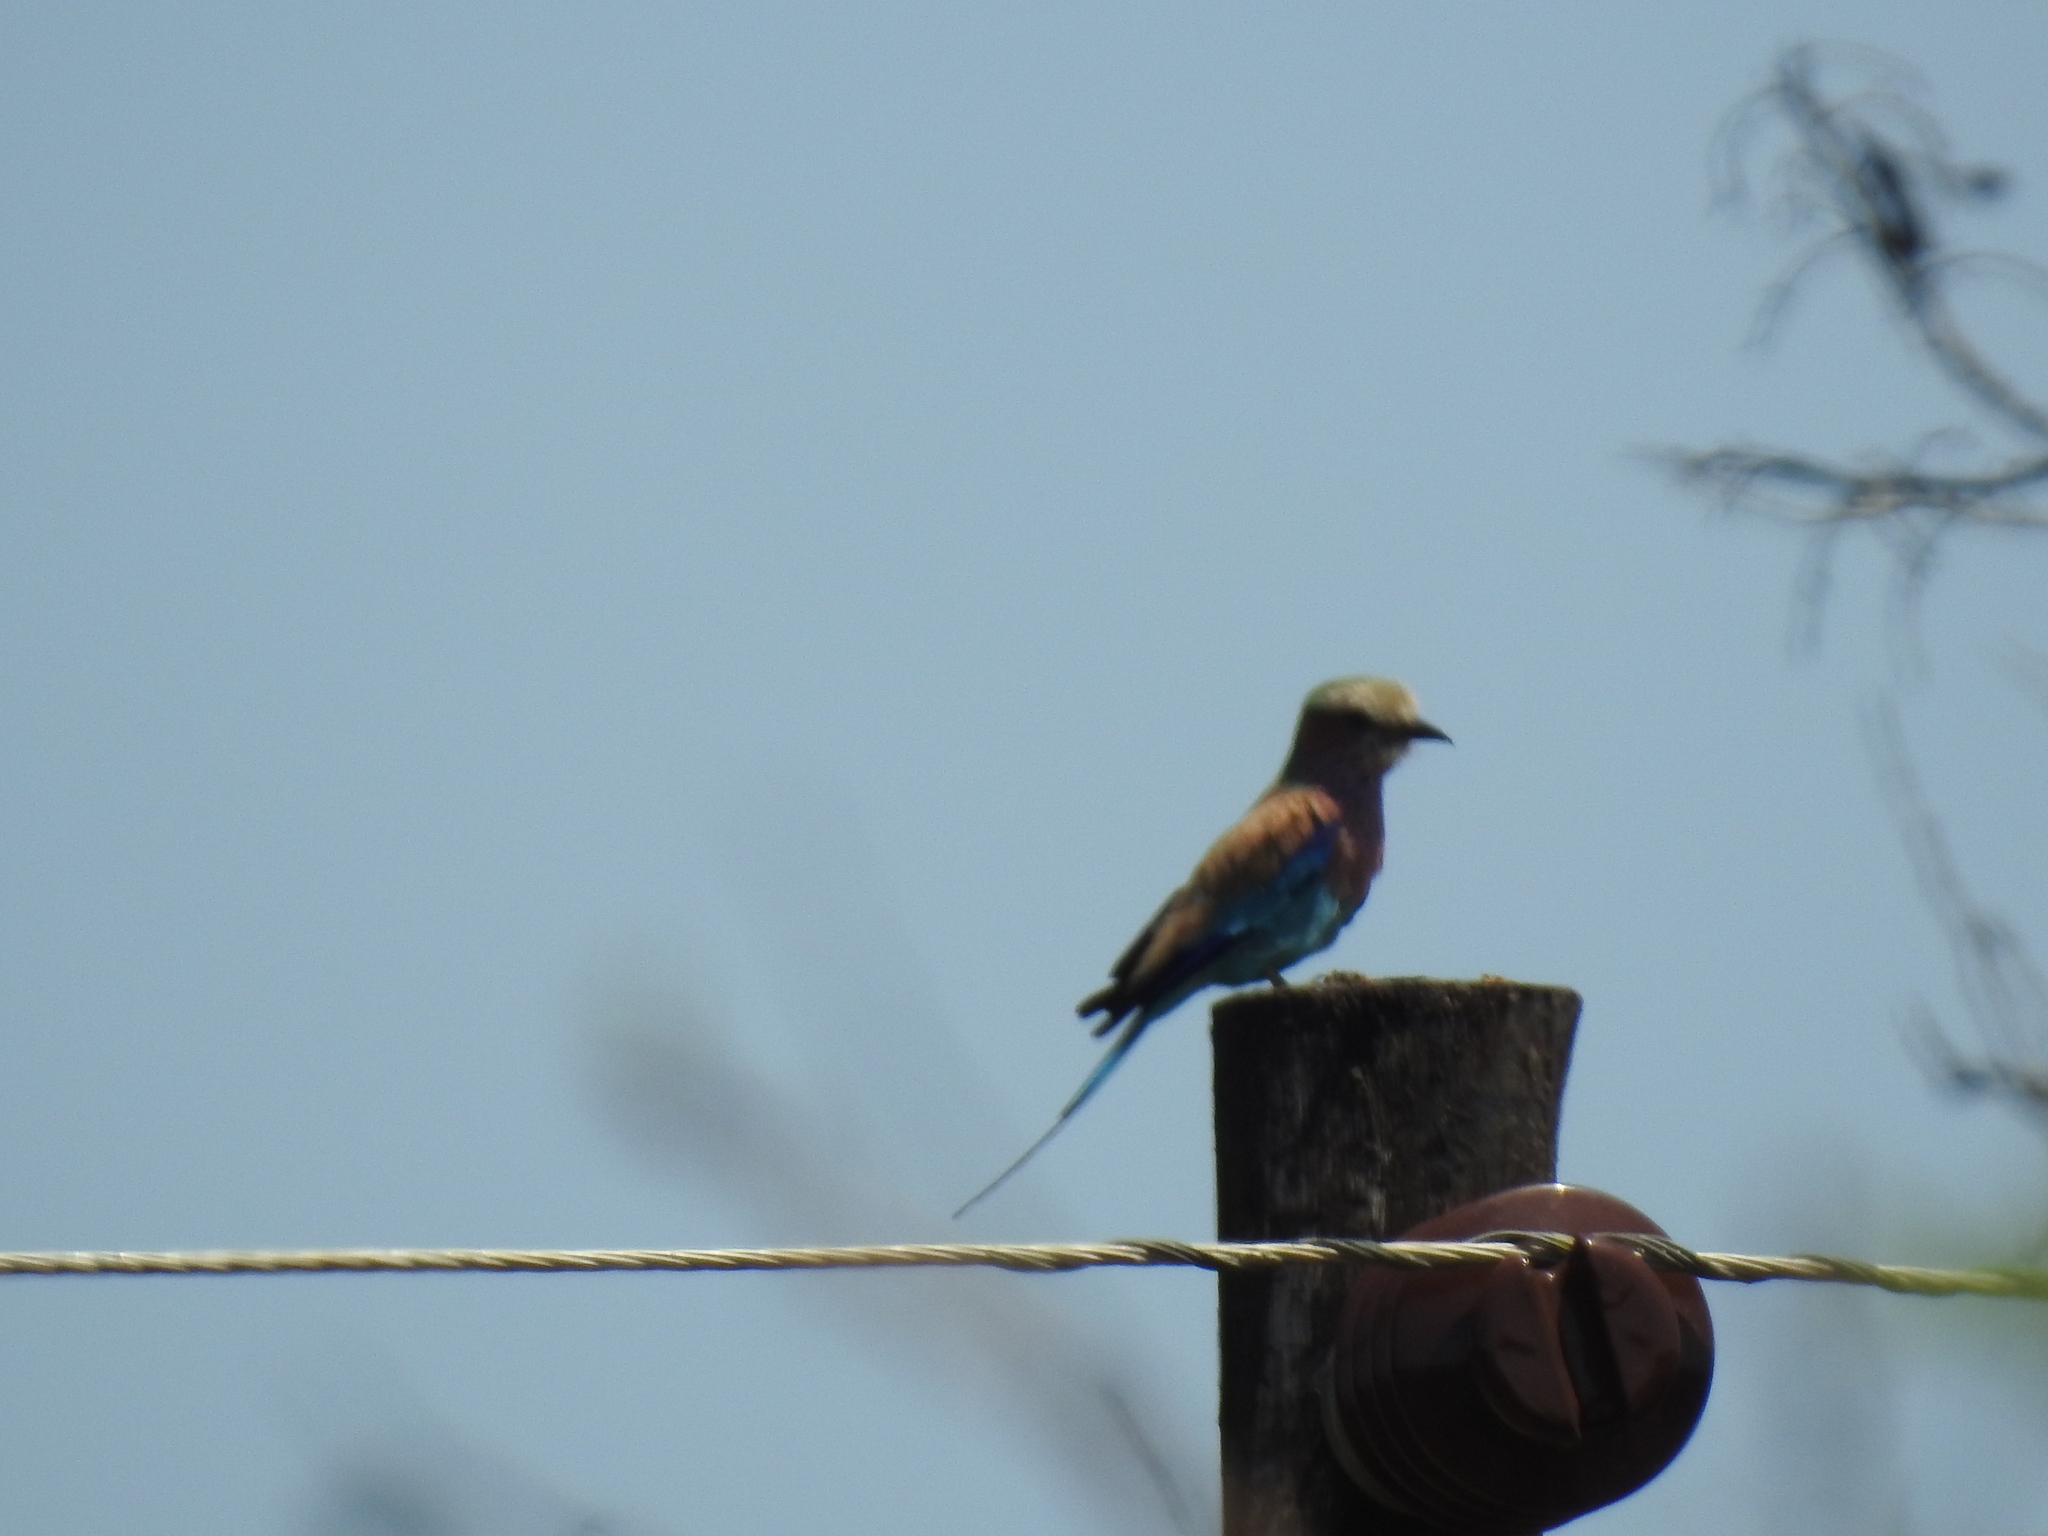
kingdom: Animalia
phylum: Chordata
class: Aves
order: Coraciiformes
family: Coraciidae
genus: Coracias
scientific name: Coracias caudatus
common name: Lilac-breasted roller
